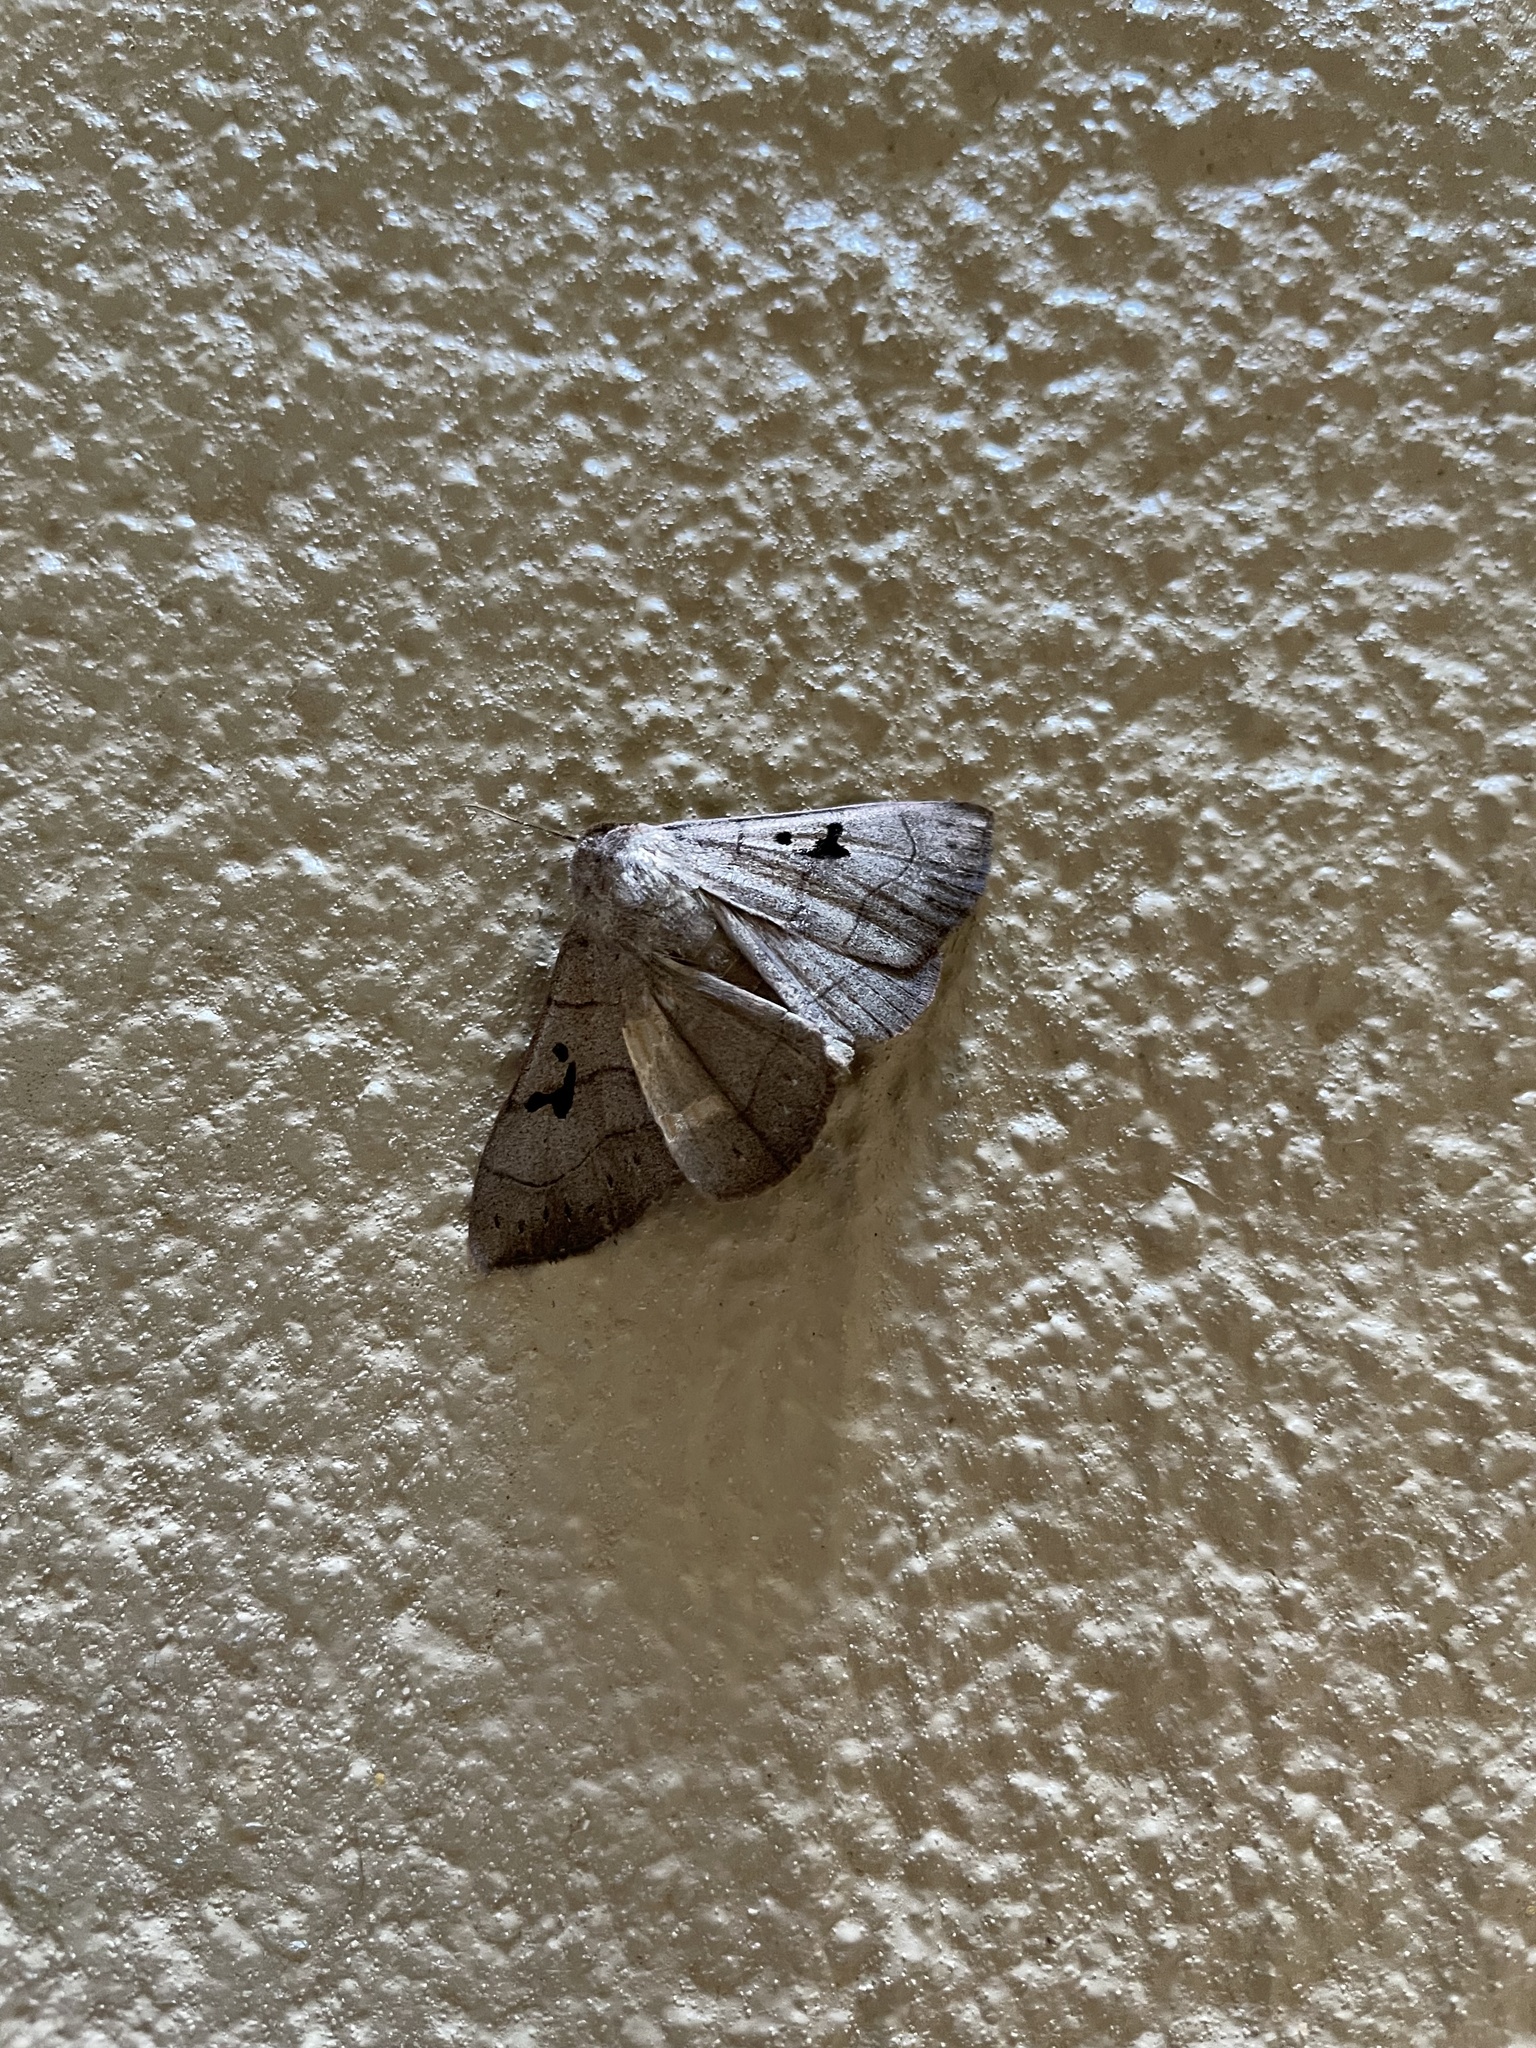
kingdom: Animalia
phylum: Arthropoda
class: Insecta
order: Lepidoptera
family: Erebidae
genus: Panopoda
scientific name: Panopoda carneicosta
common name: Brown panopoda moth
